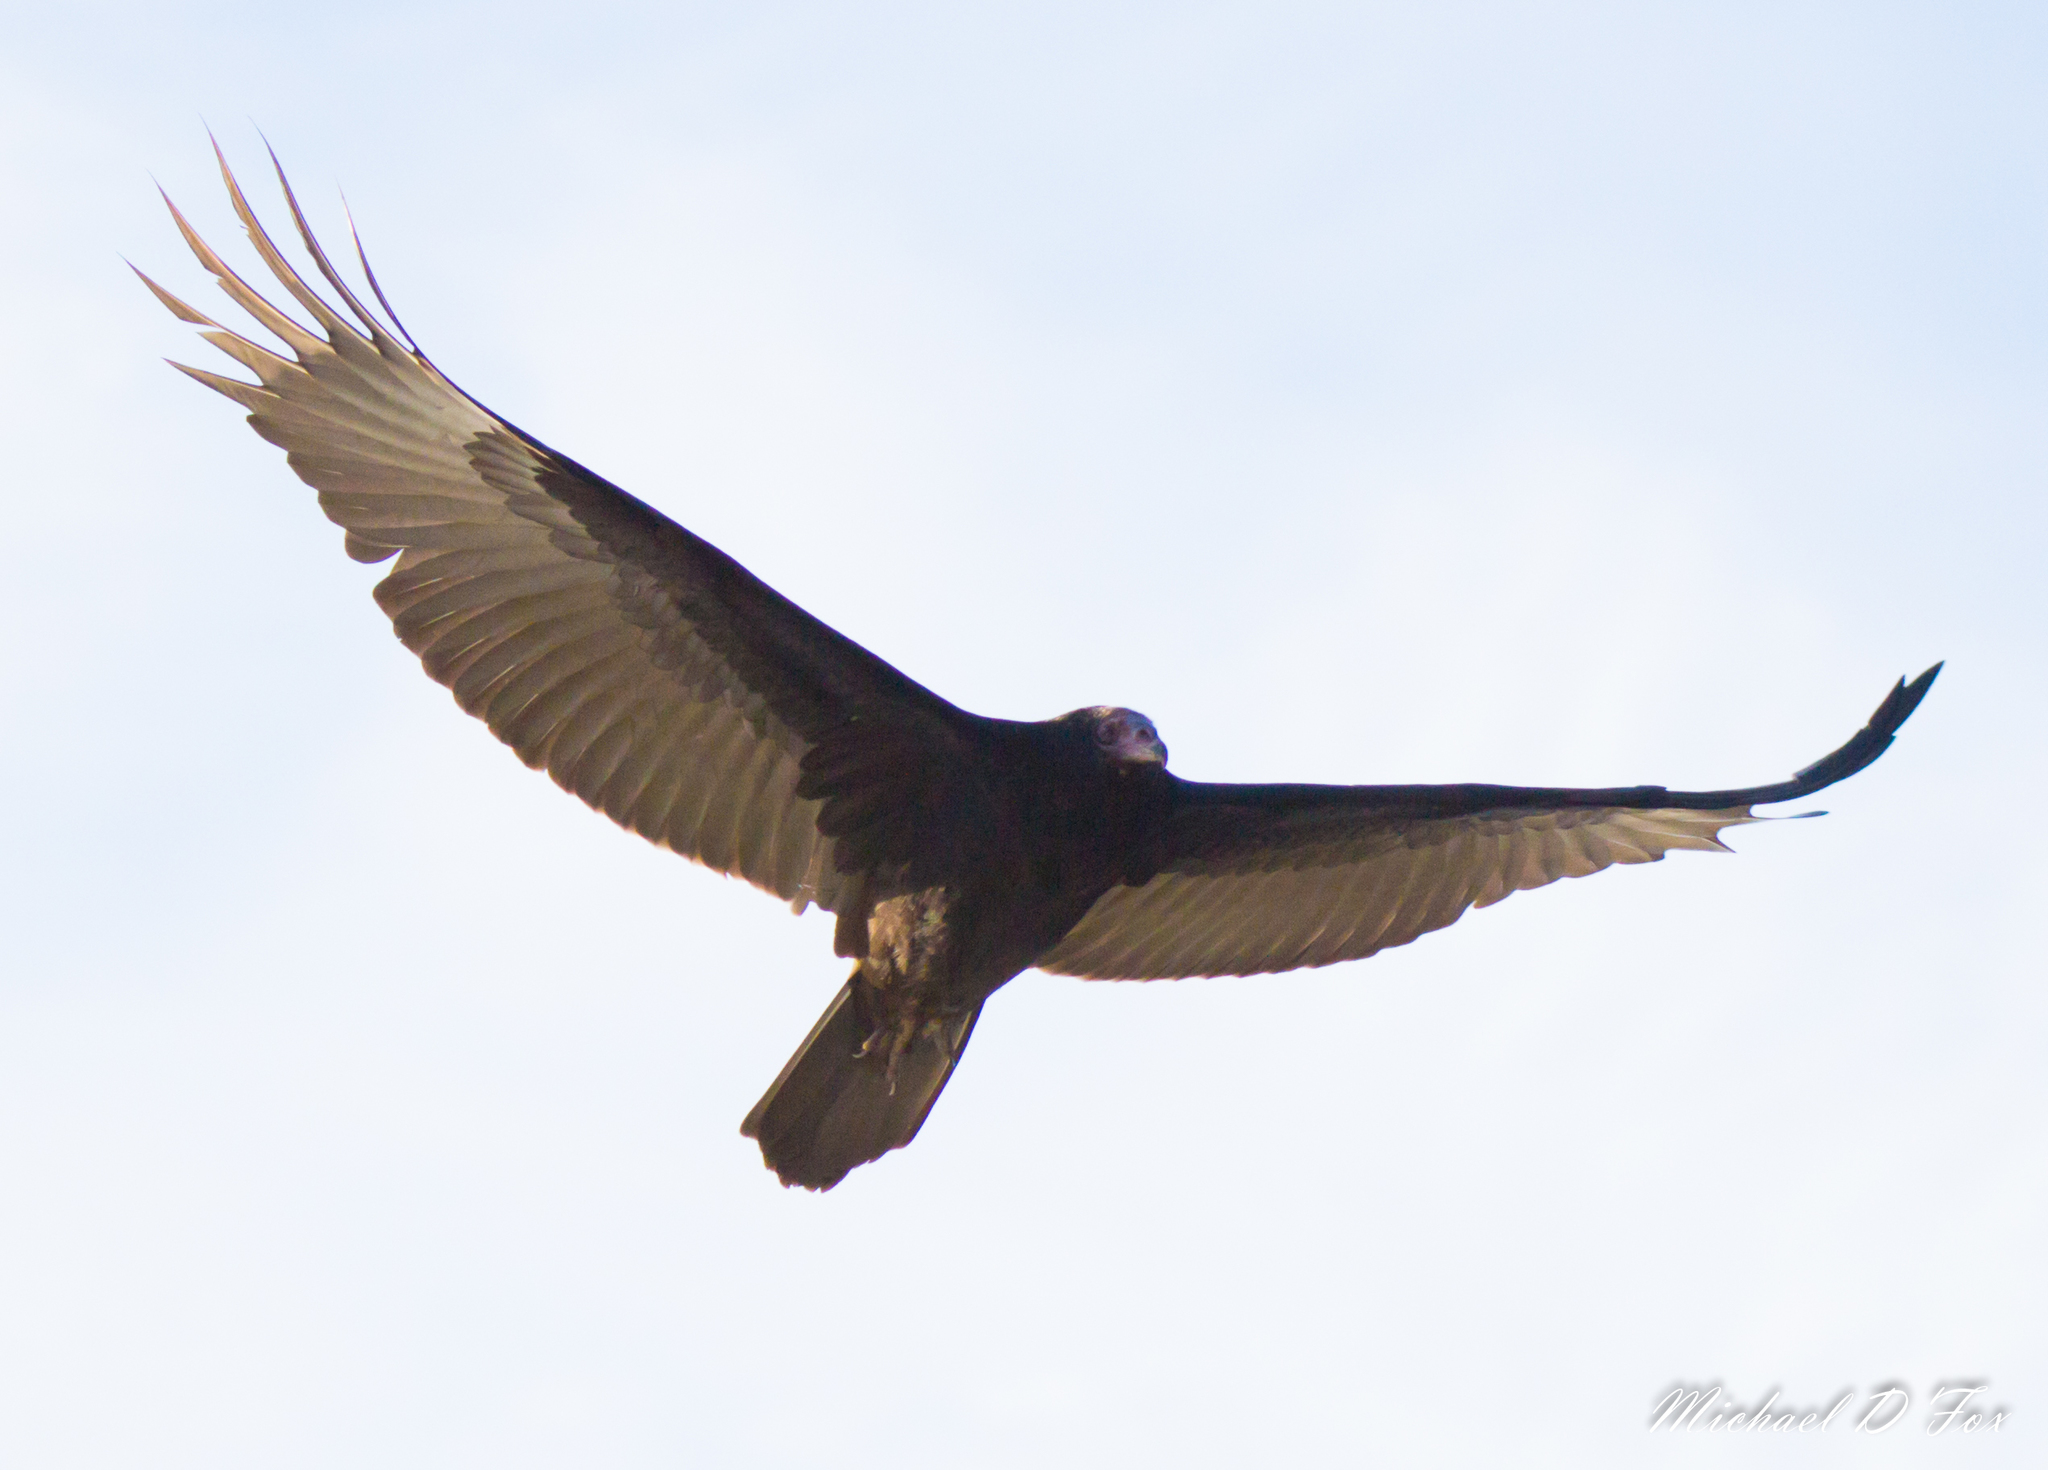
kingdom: Animalia
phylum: Chordata
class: Aves
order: Accipitriformes
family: Cathartidae
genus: Cathartes
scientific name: Cathartes aura
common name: Turkey vulture
